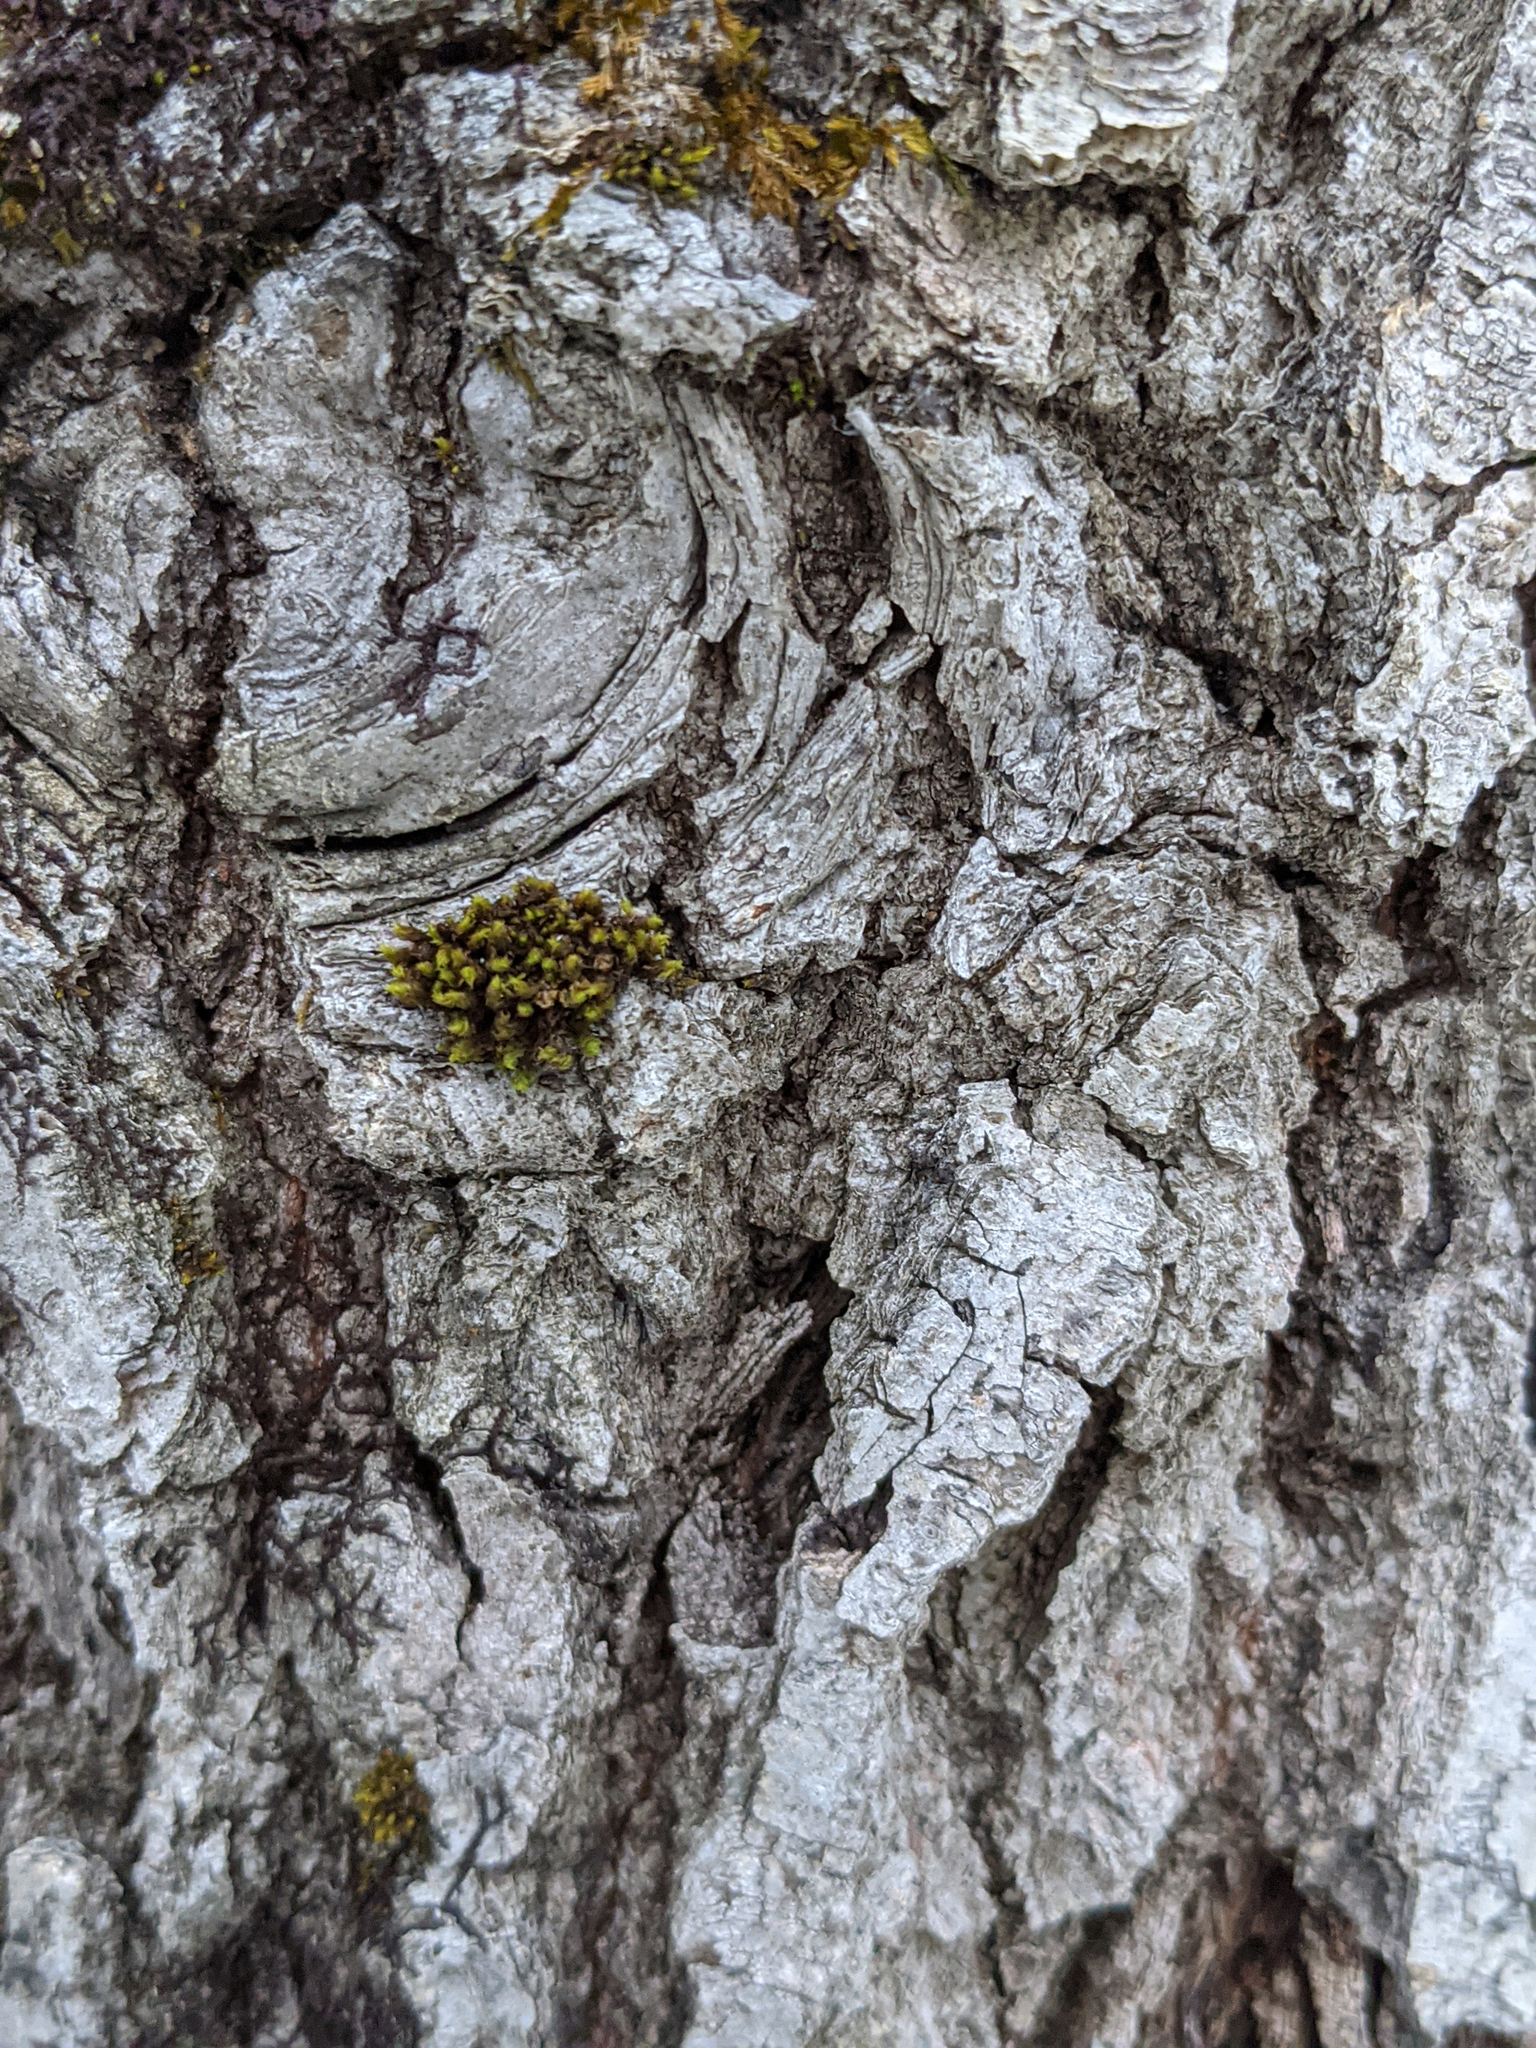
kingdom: Plantae
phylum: Bryophyta
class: Bryopsida
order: Orthotrichales
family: Orthotrichaceae
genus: Ulota
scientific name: Ulota crispa
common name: Crisped pincushion moss
